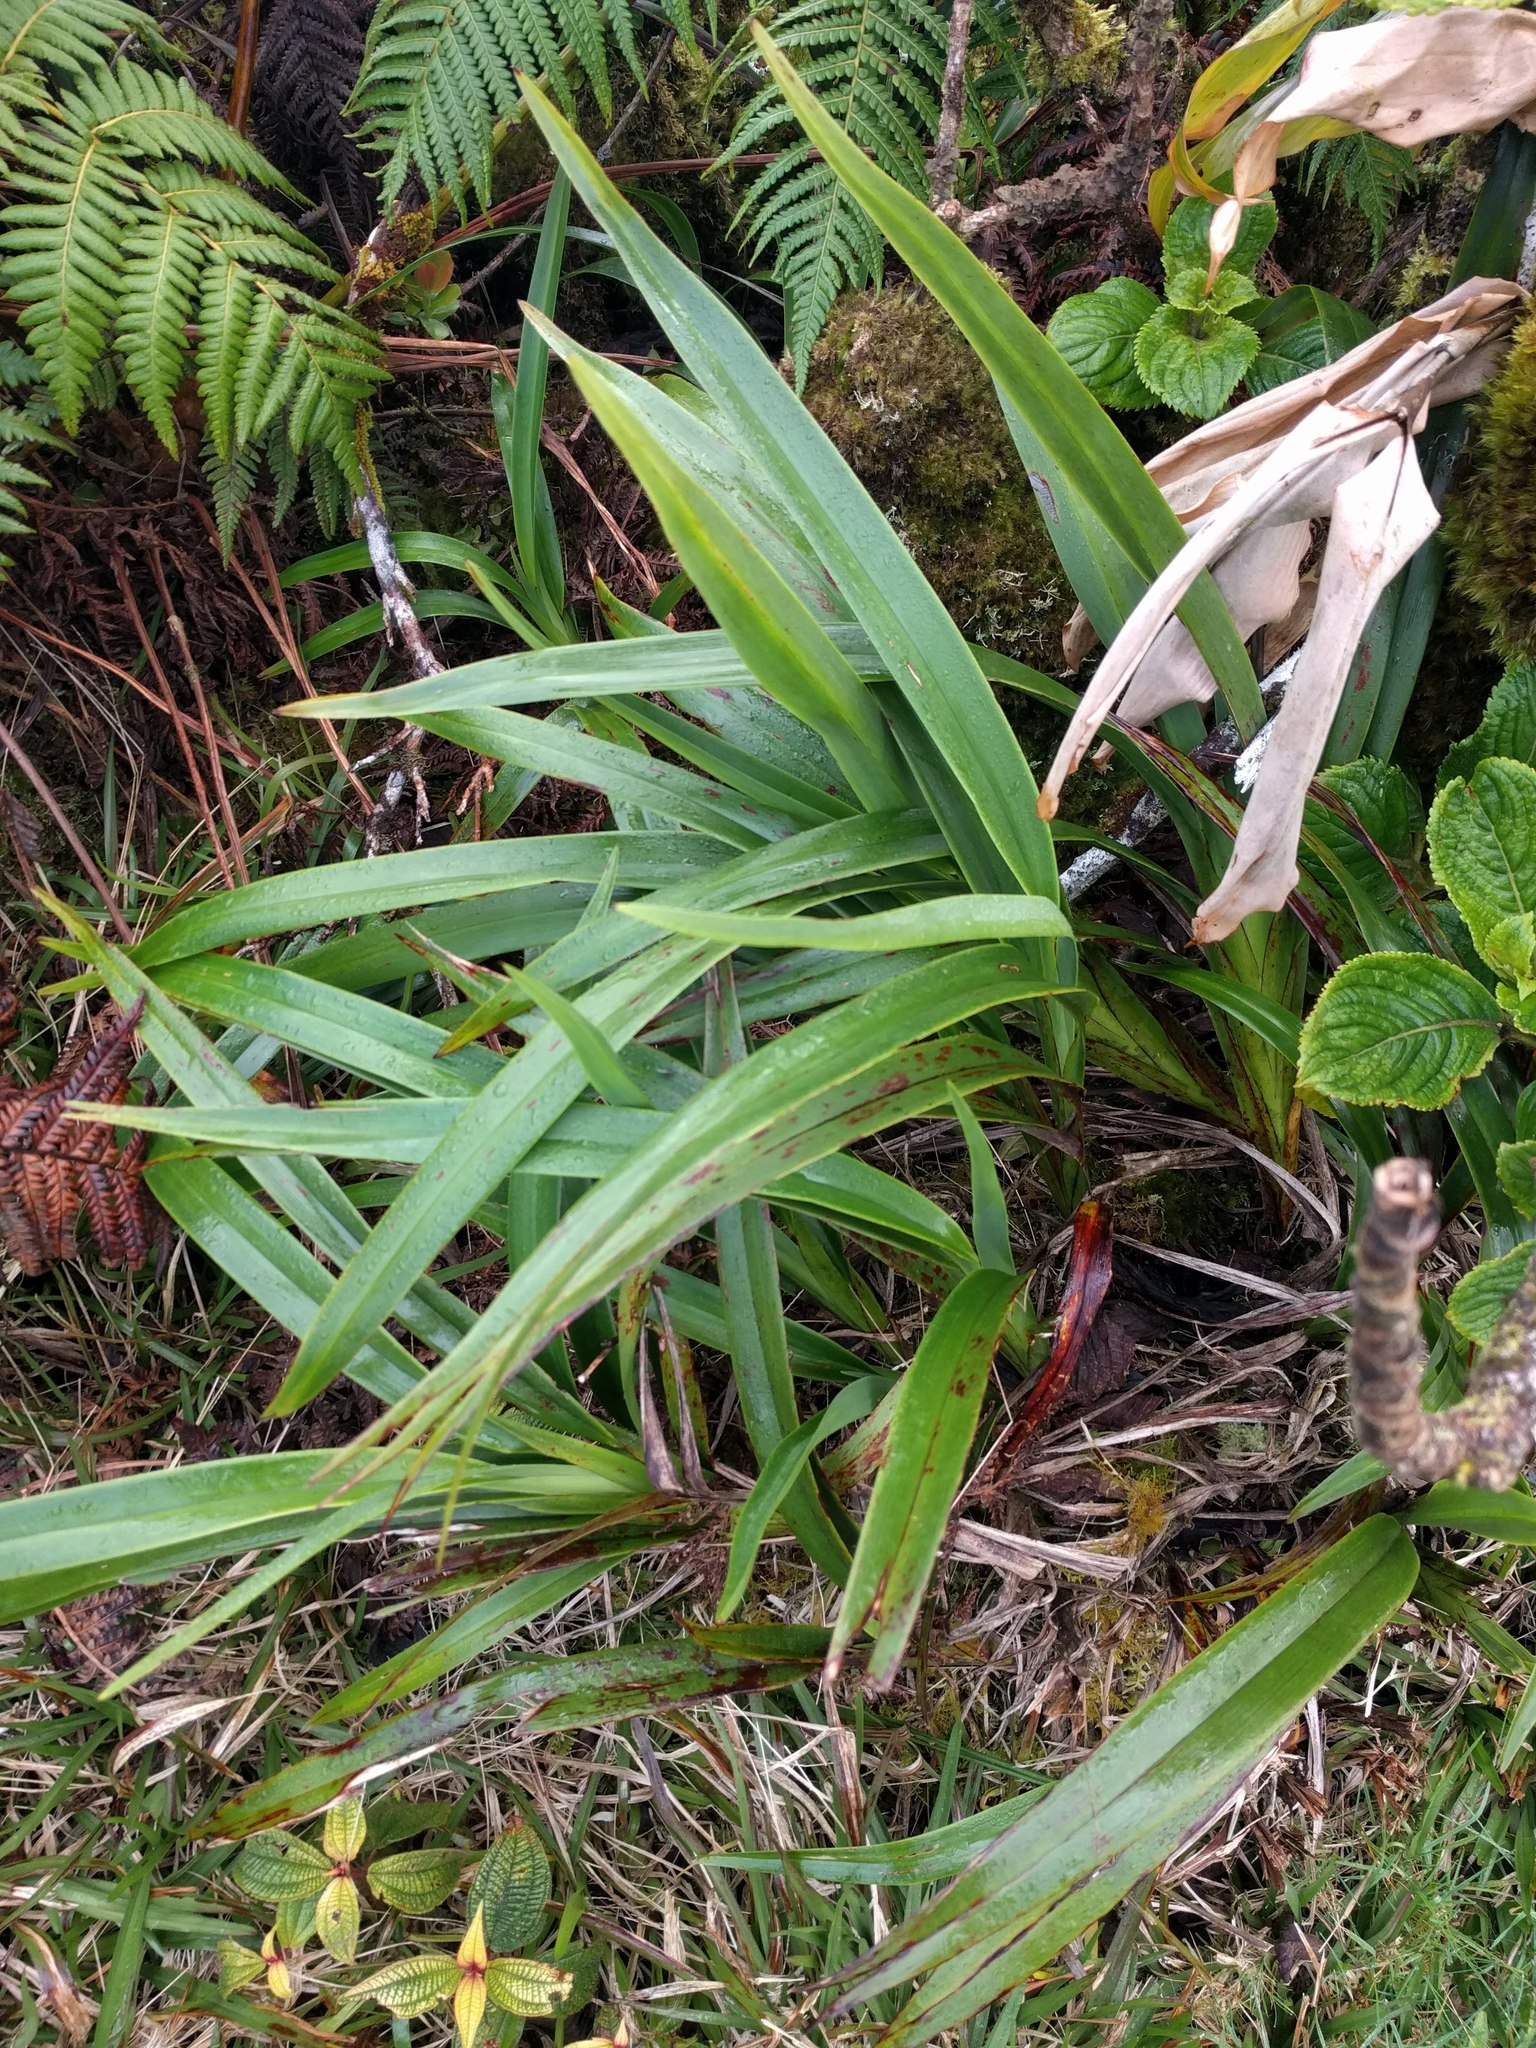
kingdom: Plantae
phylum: Tracheophyta
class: Liliopsida
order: Asparagales
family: Asphodelaceae
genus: Dianella
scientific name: Dianella sandwicensis
